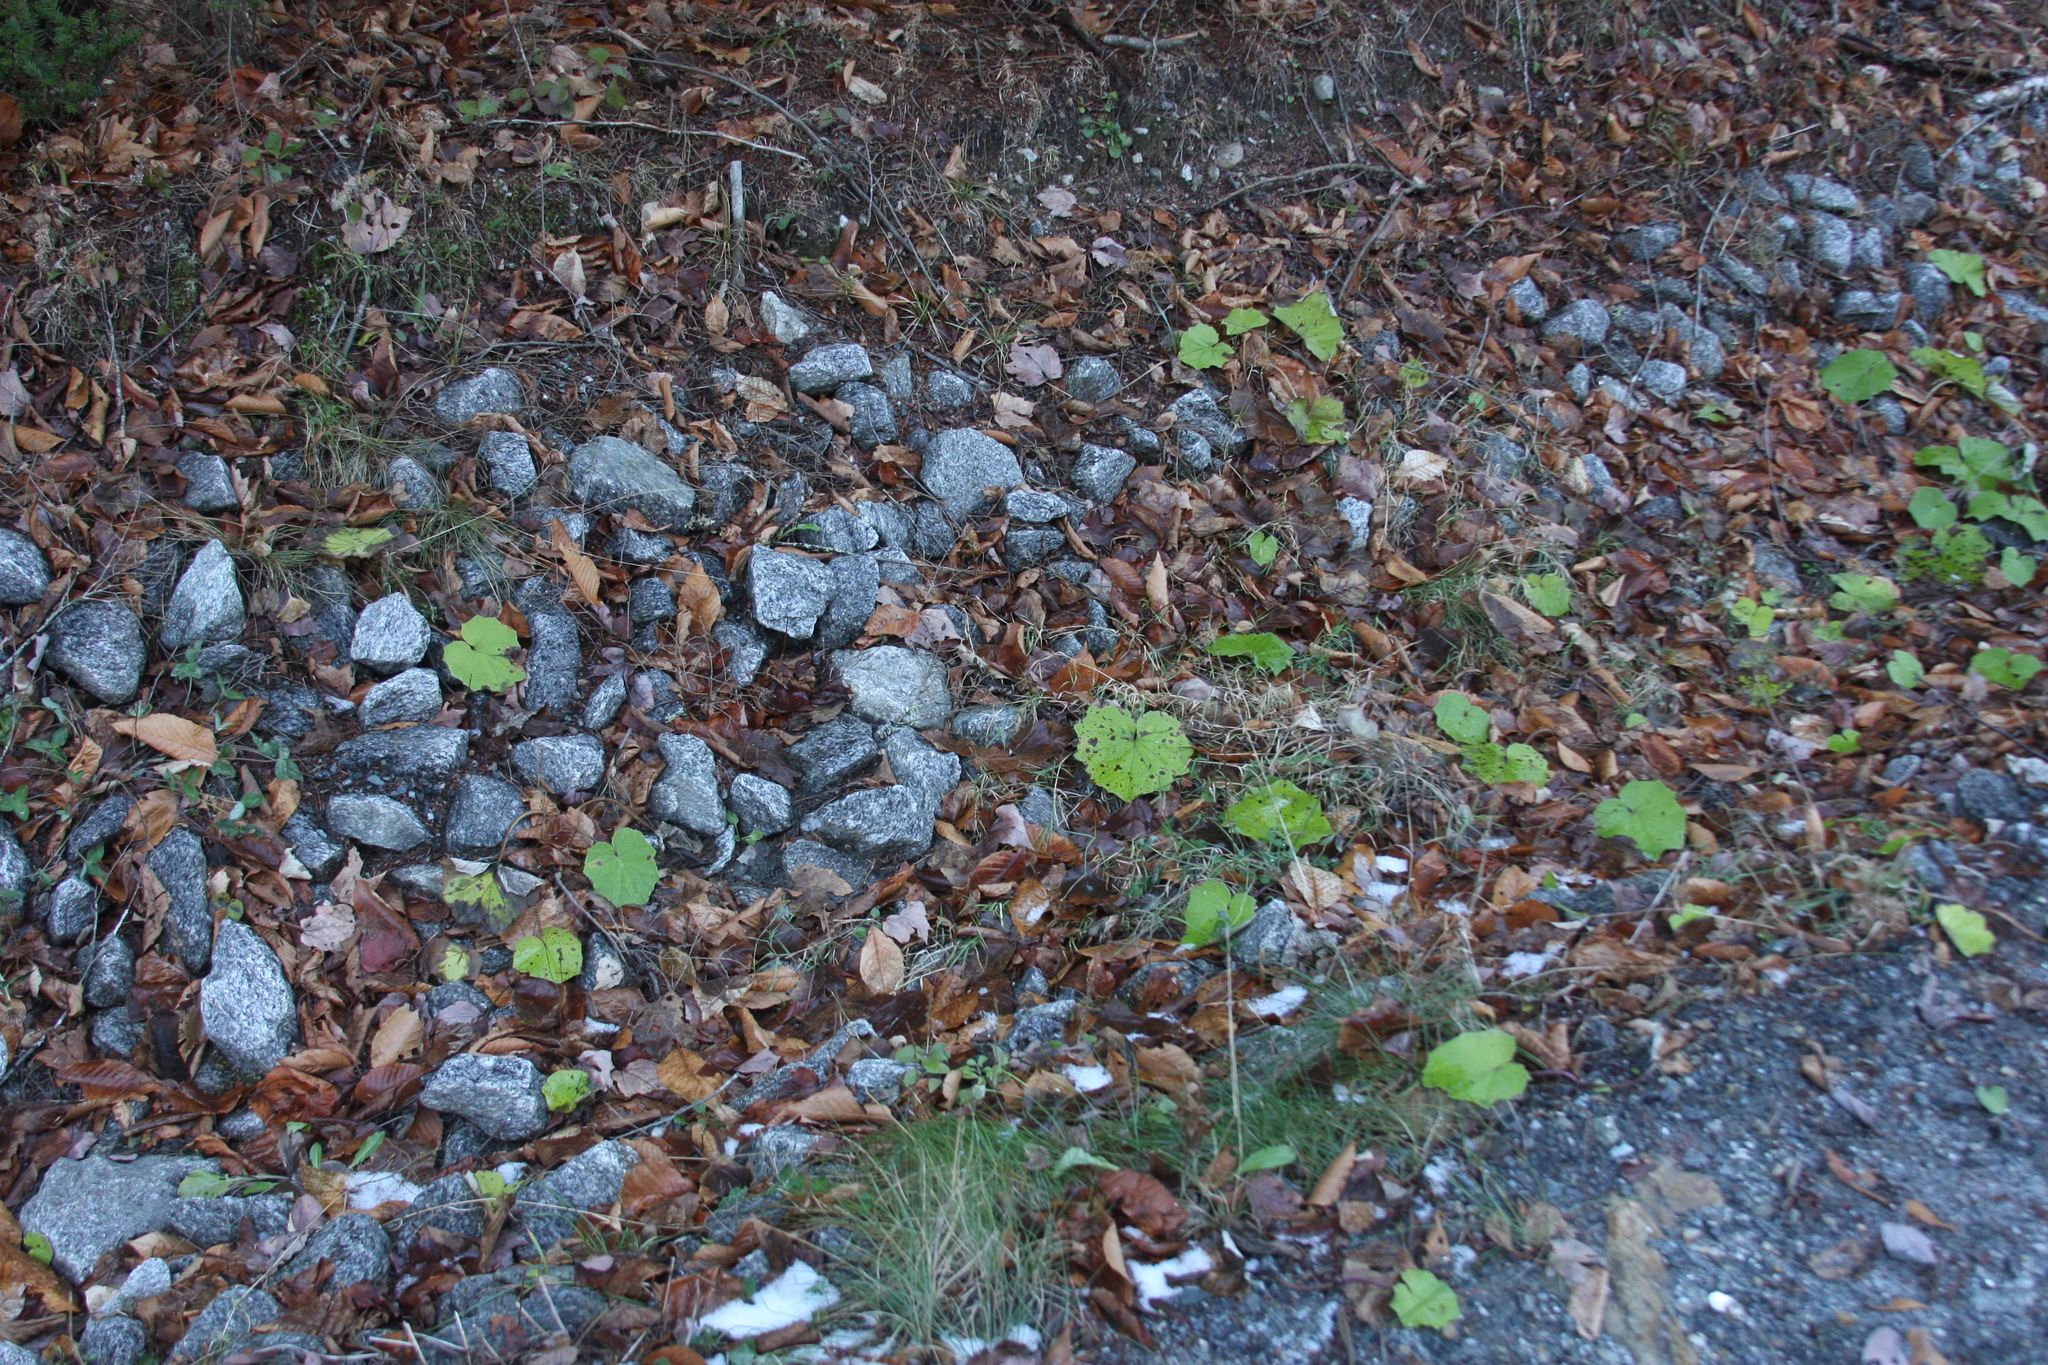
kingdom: Plantae
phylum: Tracheophyta
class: Magnoliopsida
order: Asterales
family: Asteraceae
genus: Tussilago
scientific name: Tussilago farfara
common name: Coltsfoot
